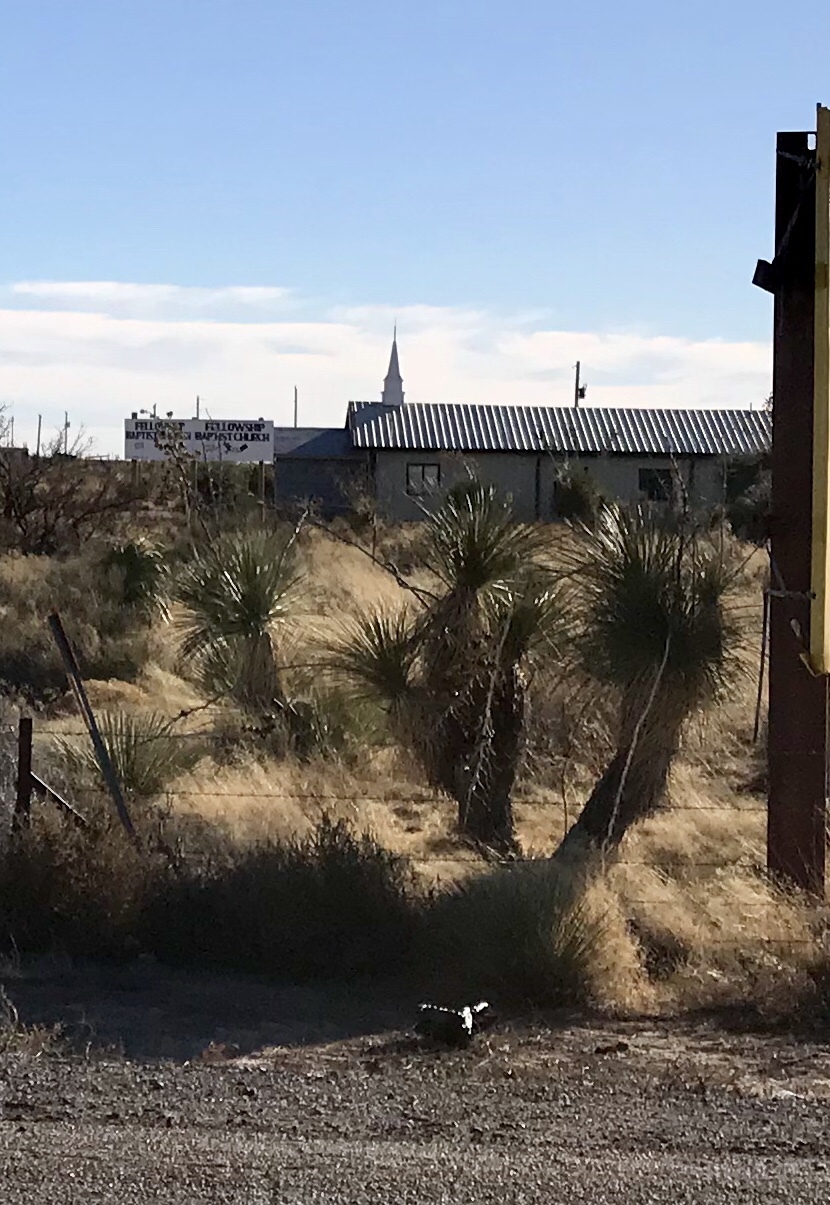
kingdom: Plantae
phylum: Tracheophyta
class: Liliopsida
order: Asparagales
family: Asparagaceae
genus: Yucca
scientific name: Yucca elata
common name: Palmella
